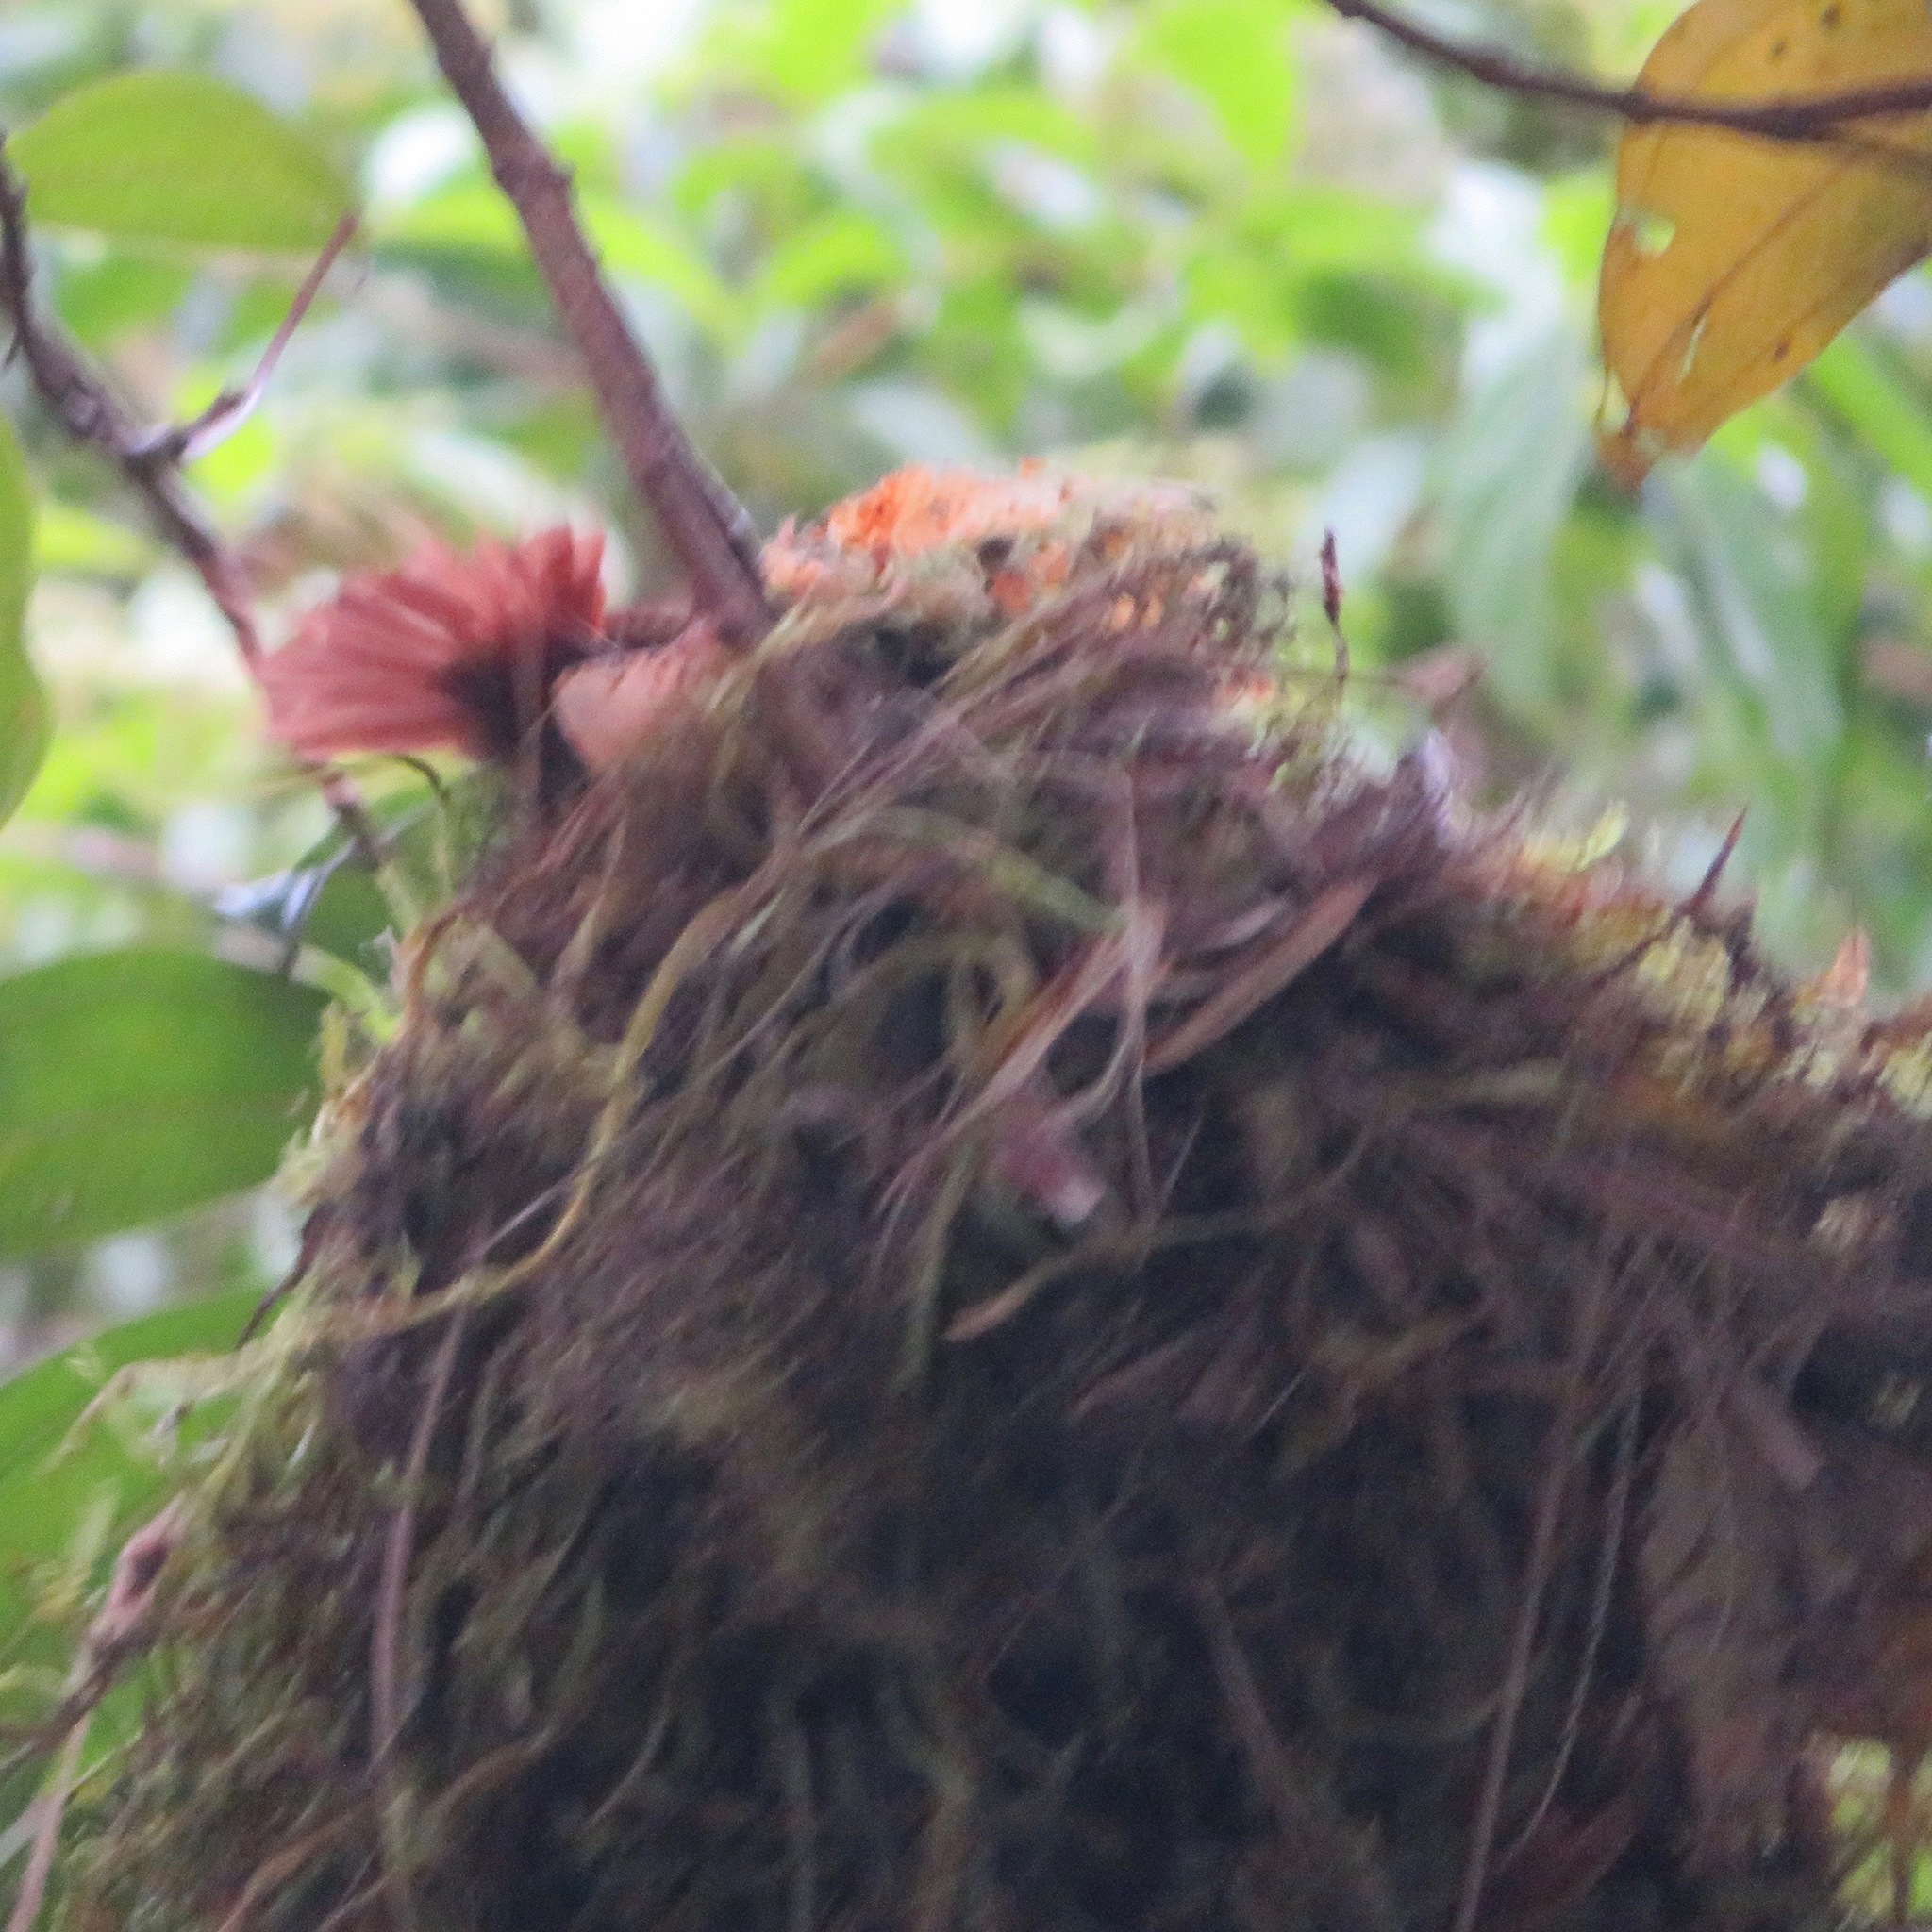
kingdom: Animalia
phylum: Chordata
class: Aves
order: Passeriformes
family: Furnariidae
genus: Cranioleuca
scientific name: Cranioleuca erythrops
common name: Red-faced spinetail
